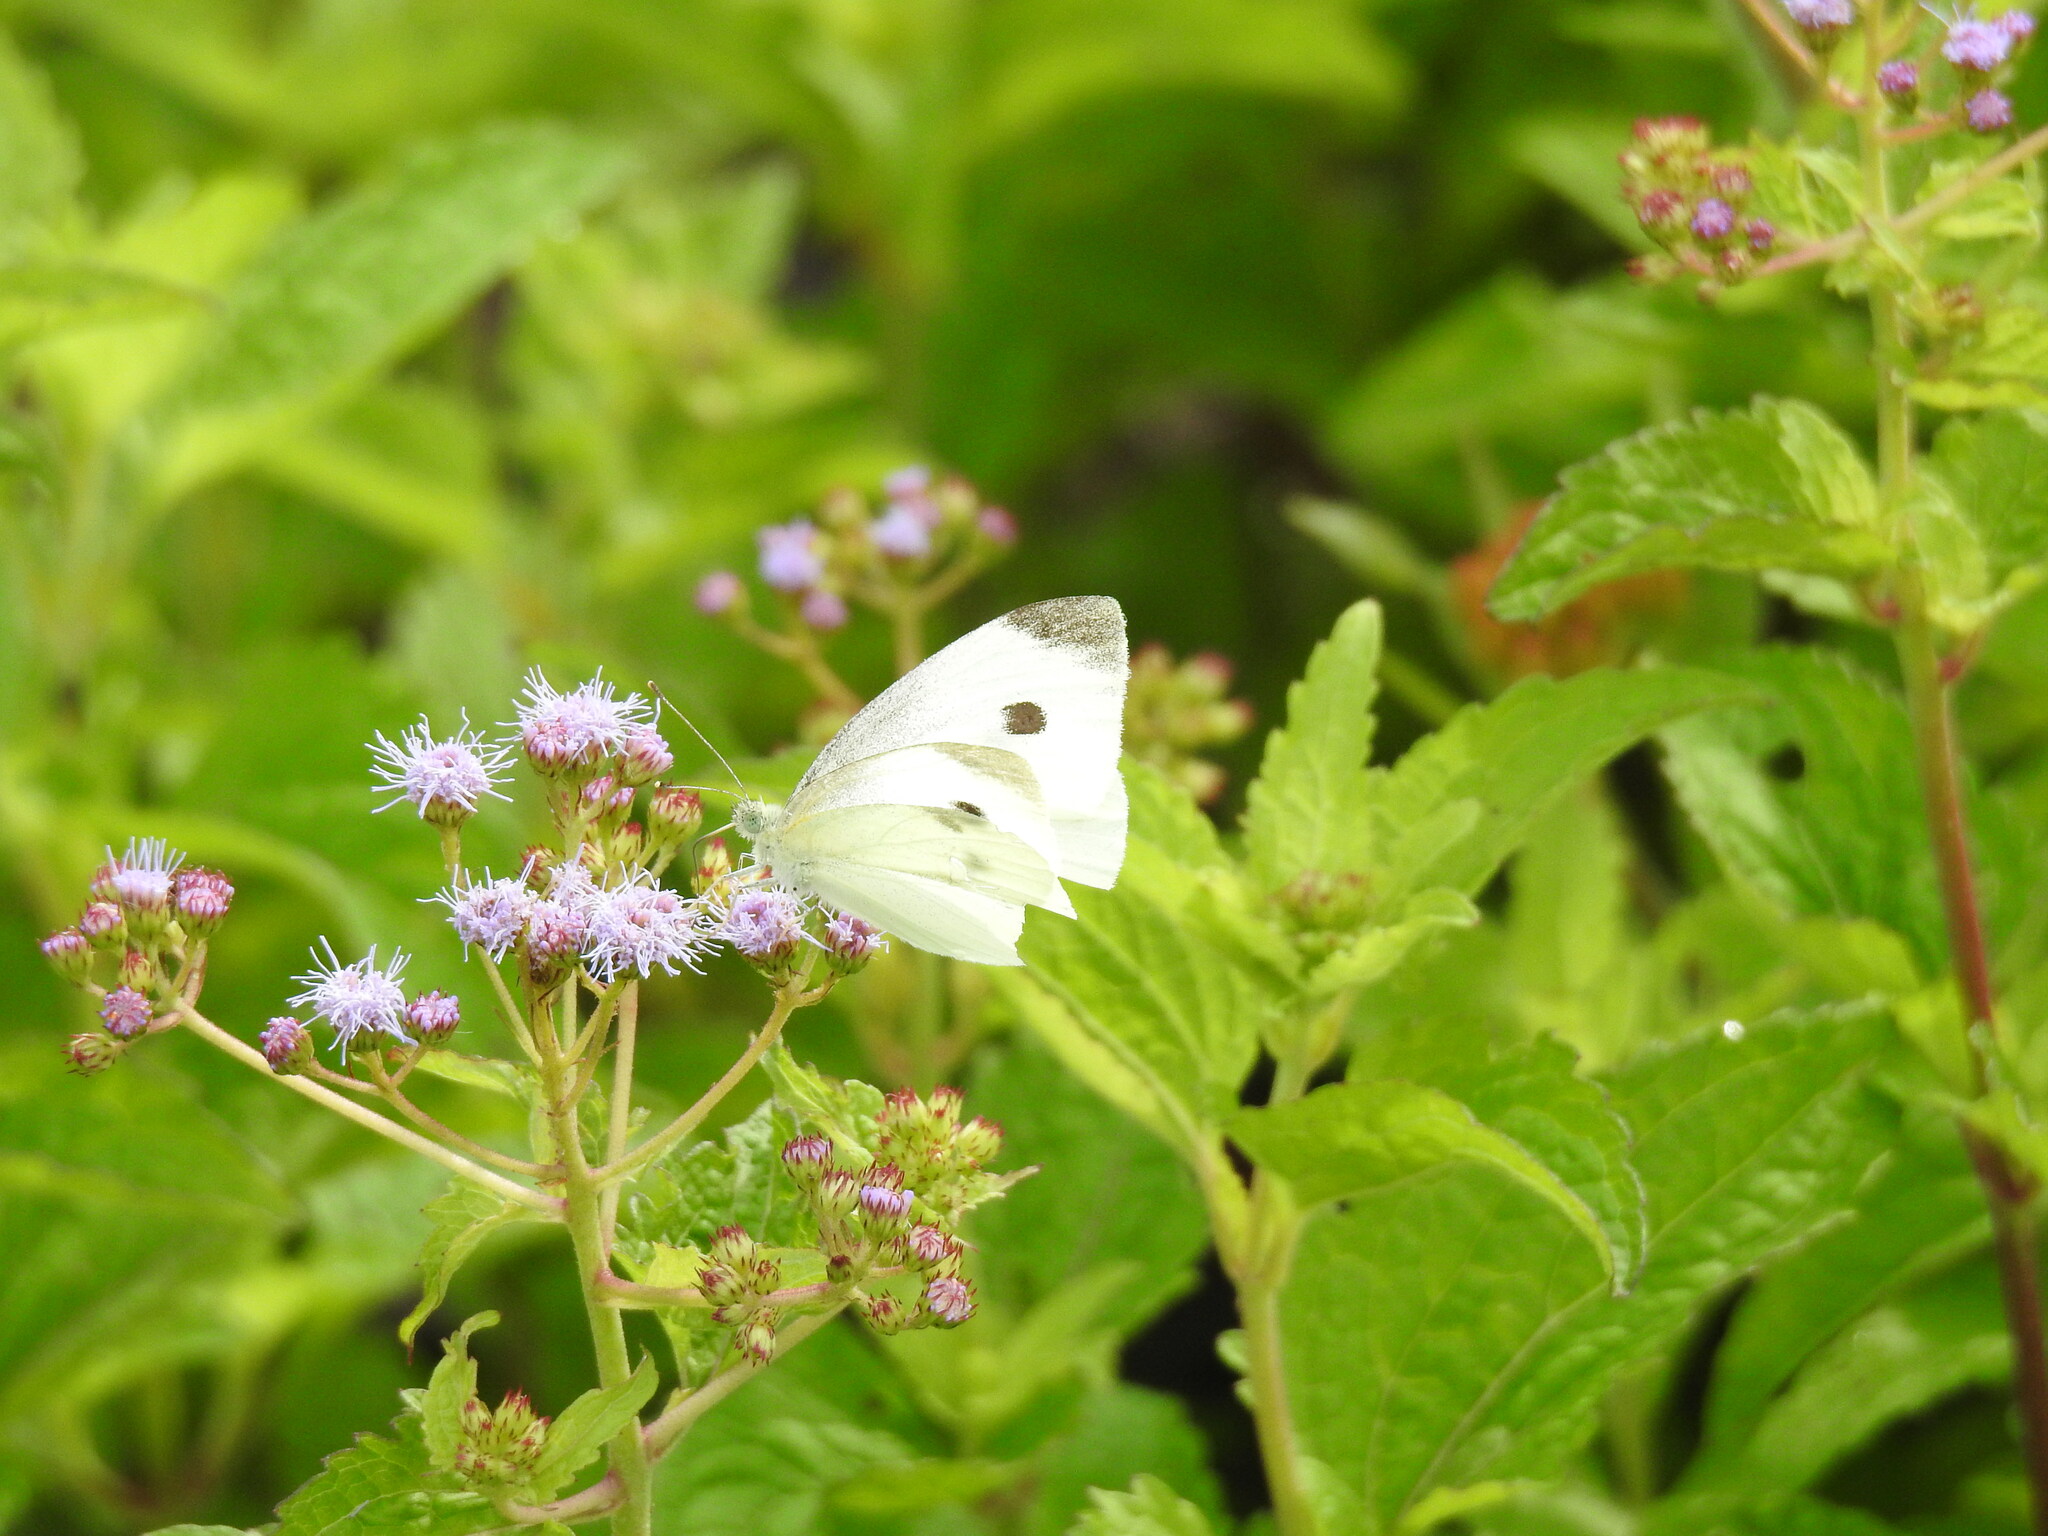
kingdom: Animalia
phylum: Arthropoda
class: Insecta
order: Lepidoptera
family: Pieridae
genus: Pieris
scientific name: Pieris rapae
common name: Small white
